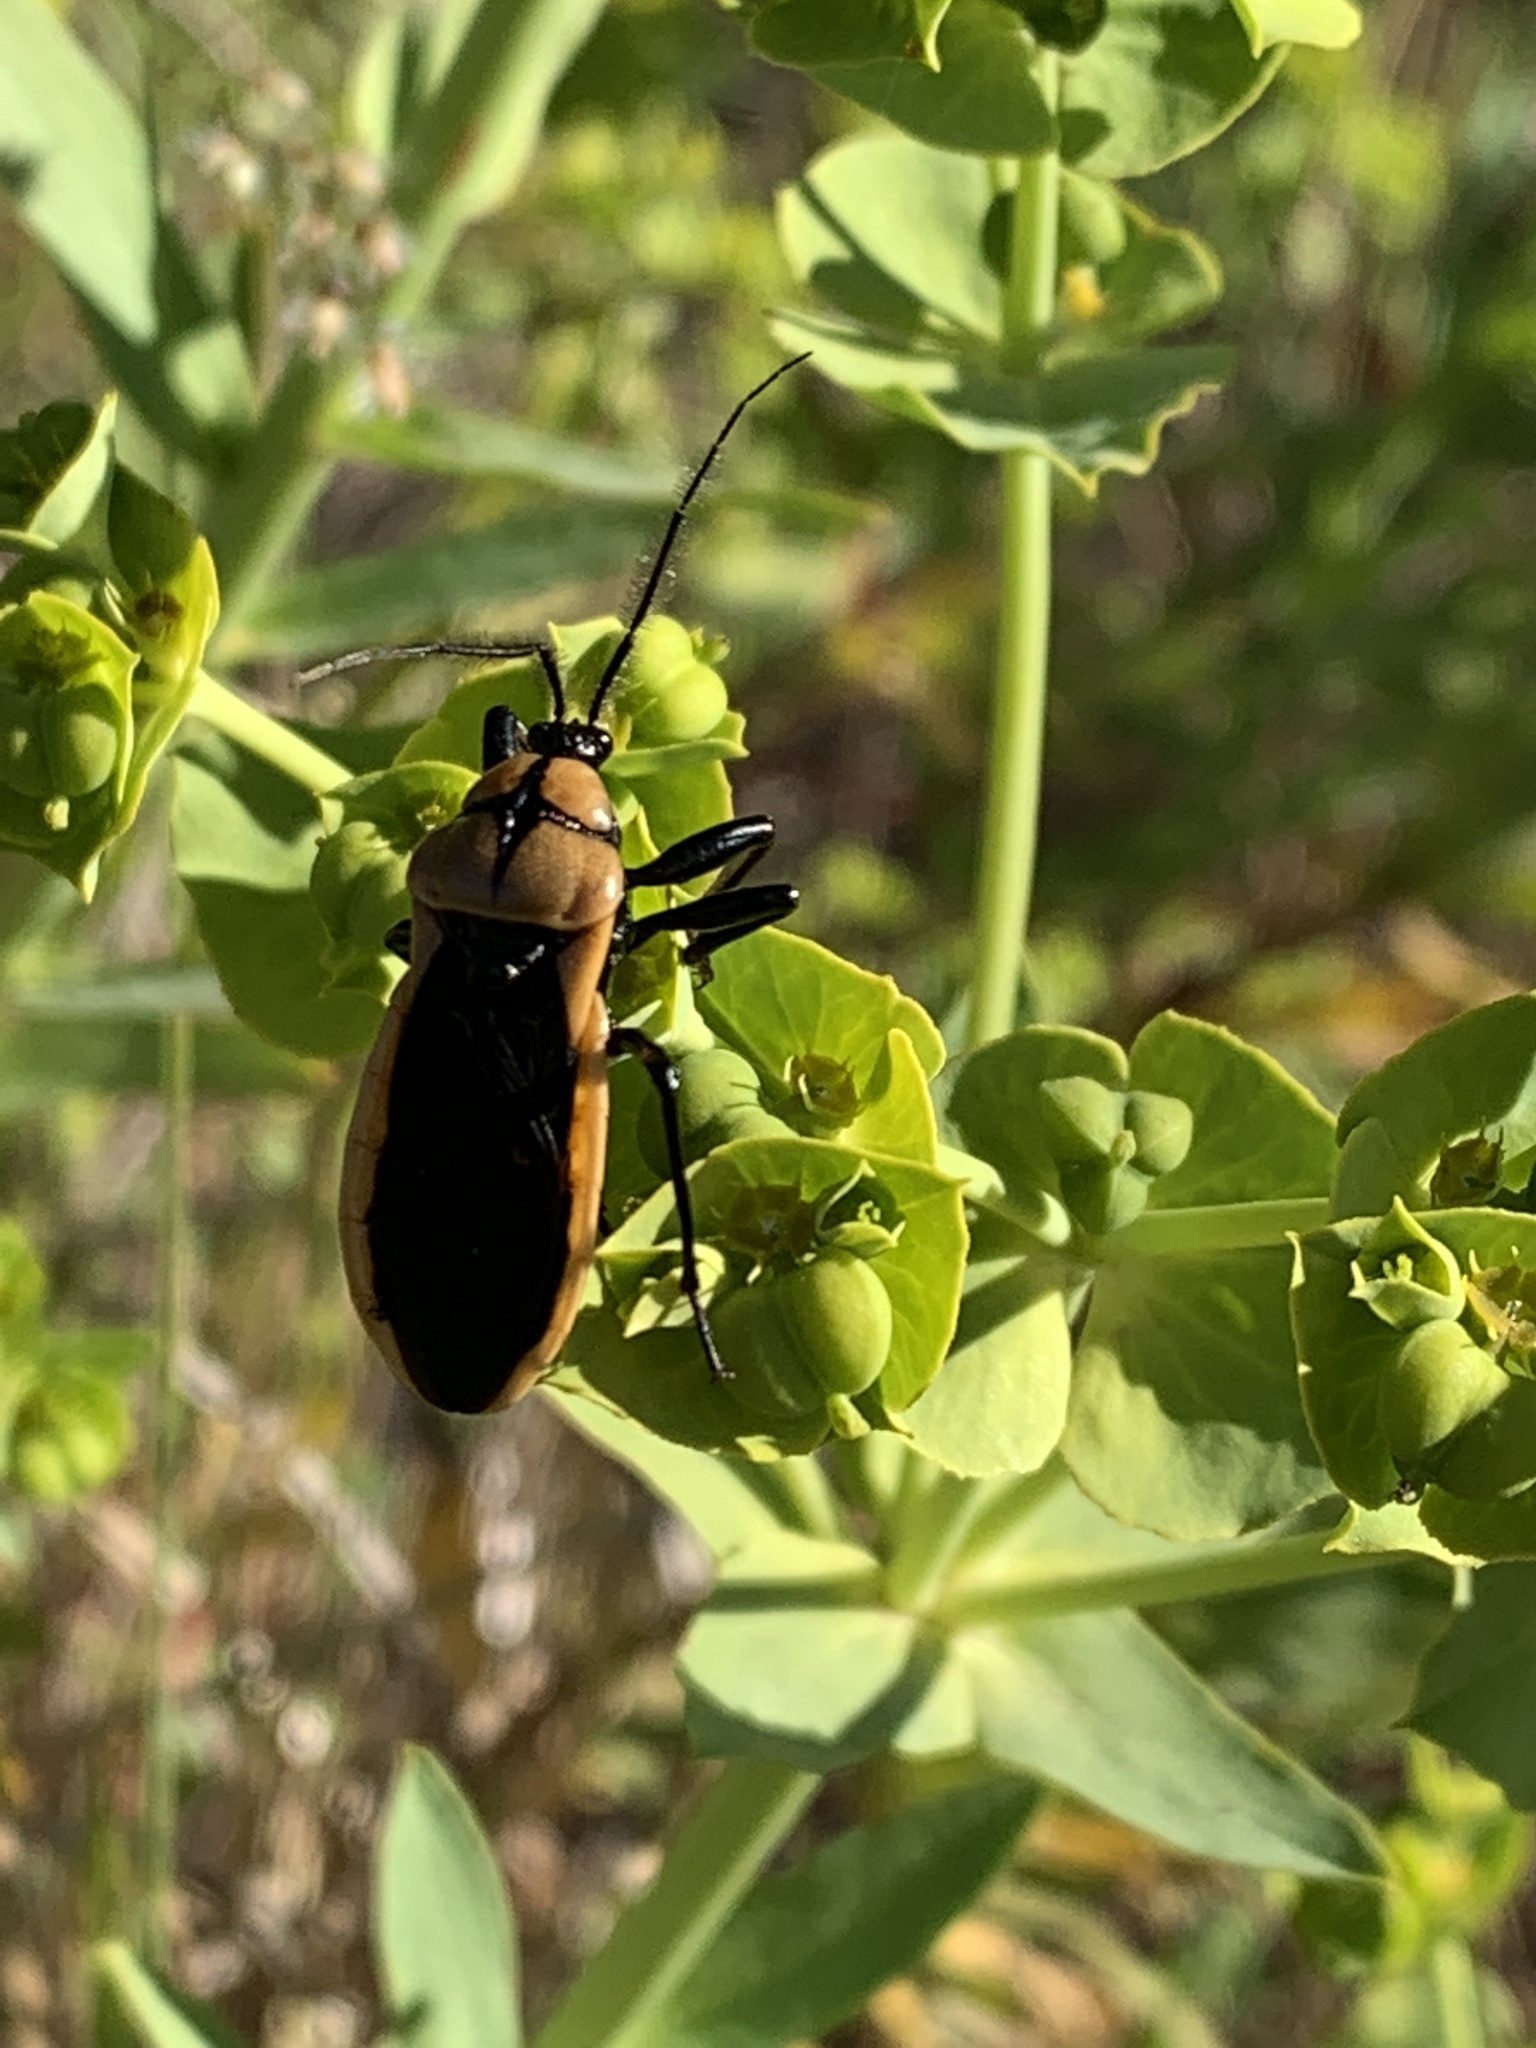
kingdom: Animalia
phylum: Arthropoda
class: Insecta
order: Hemiptera
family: Reduviidae
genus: Ectrichodia
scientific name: Ectrichodia crux
